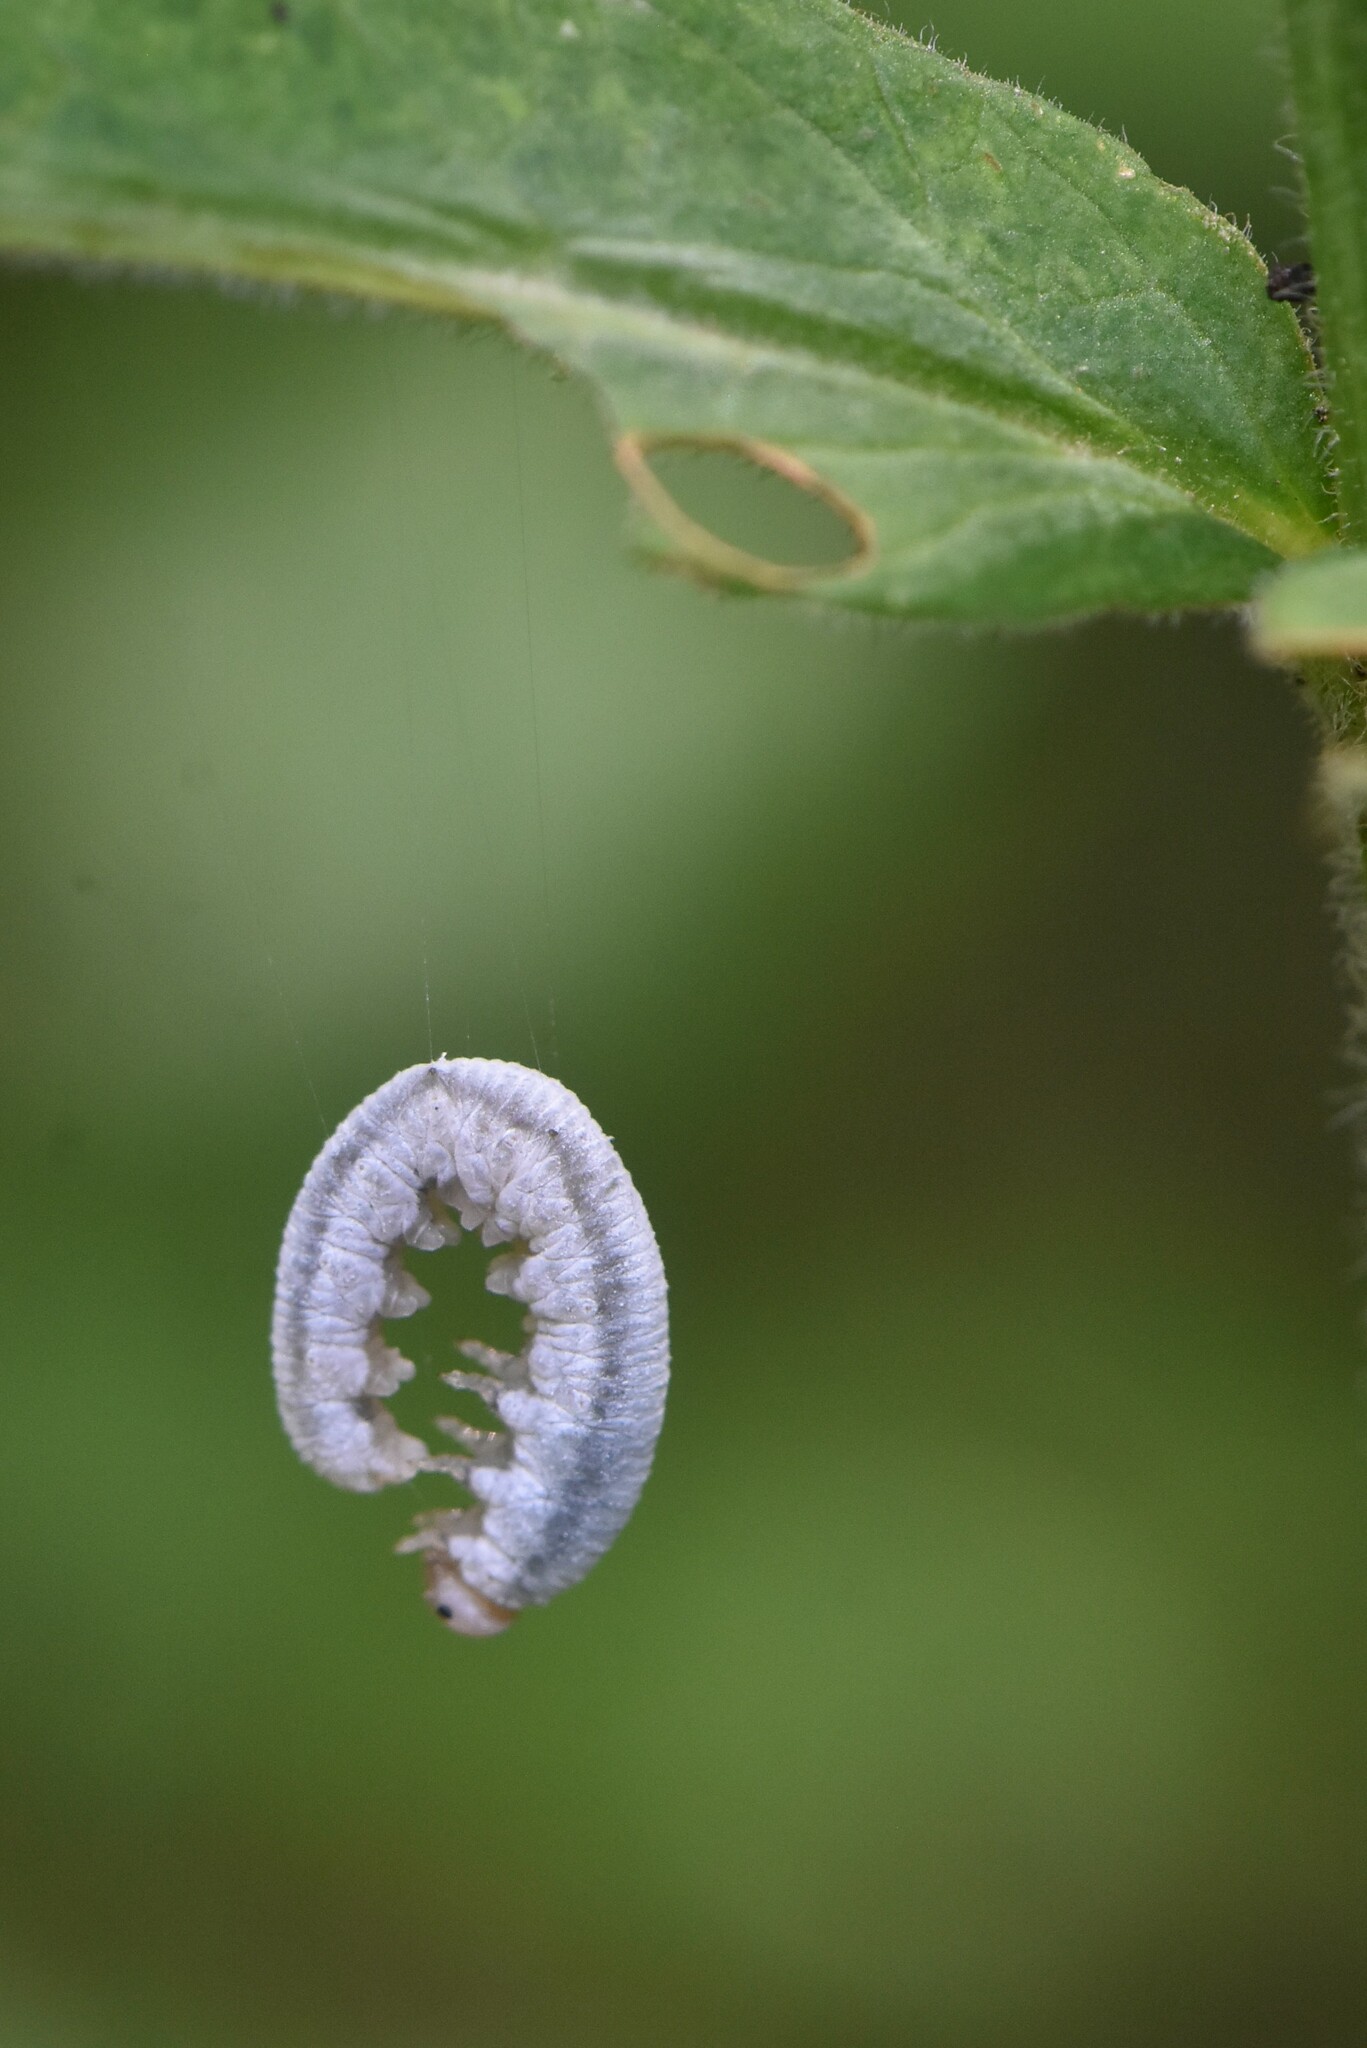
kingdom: Animalia
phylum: Arthropoda
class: Insecta
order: Hymenoptera
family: Tenthredinidae
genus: Monostegia
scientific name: Monostegia abdominalis
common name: Tenthredid wasp
